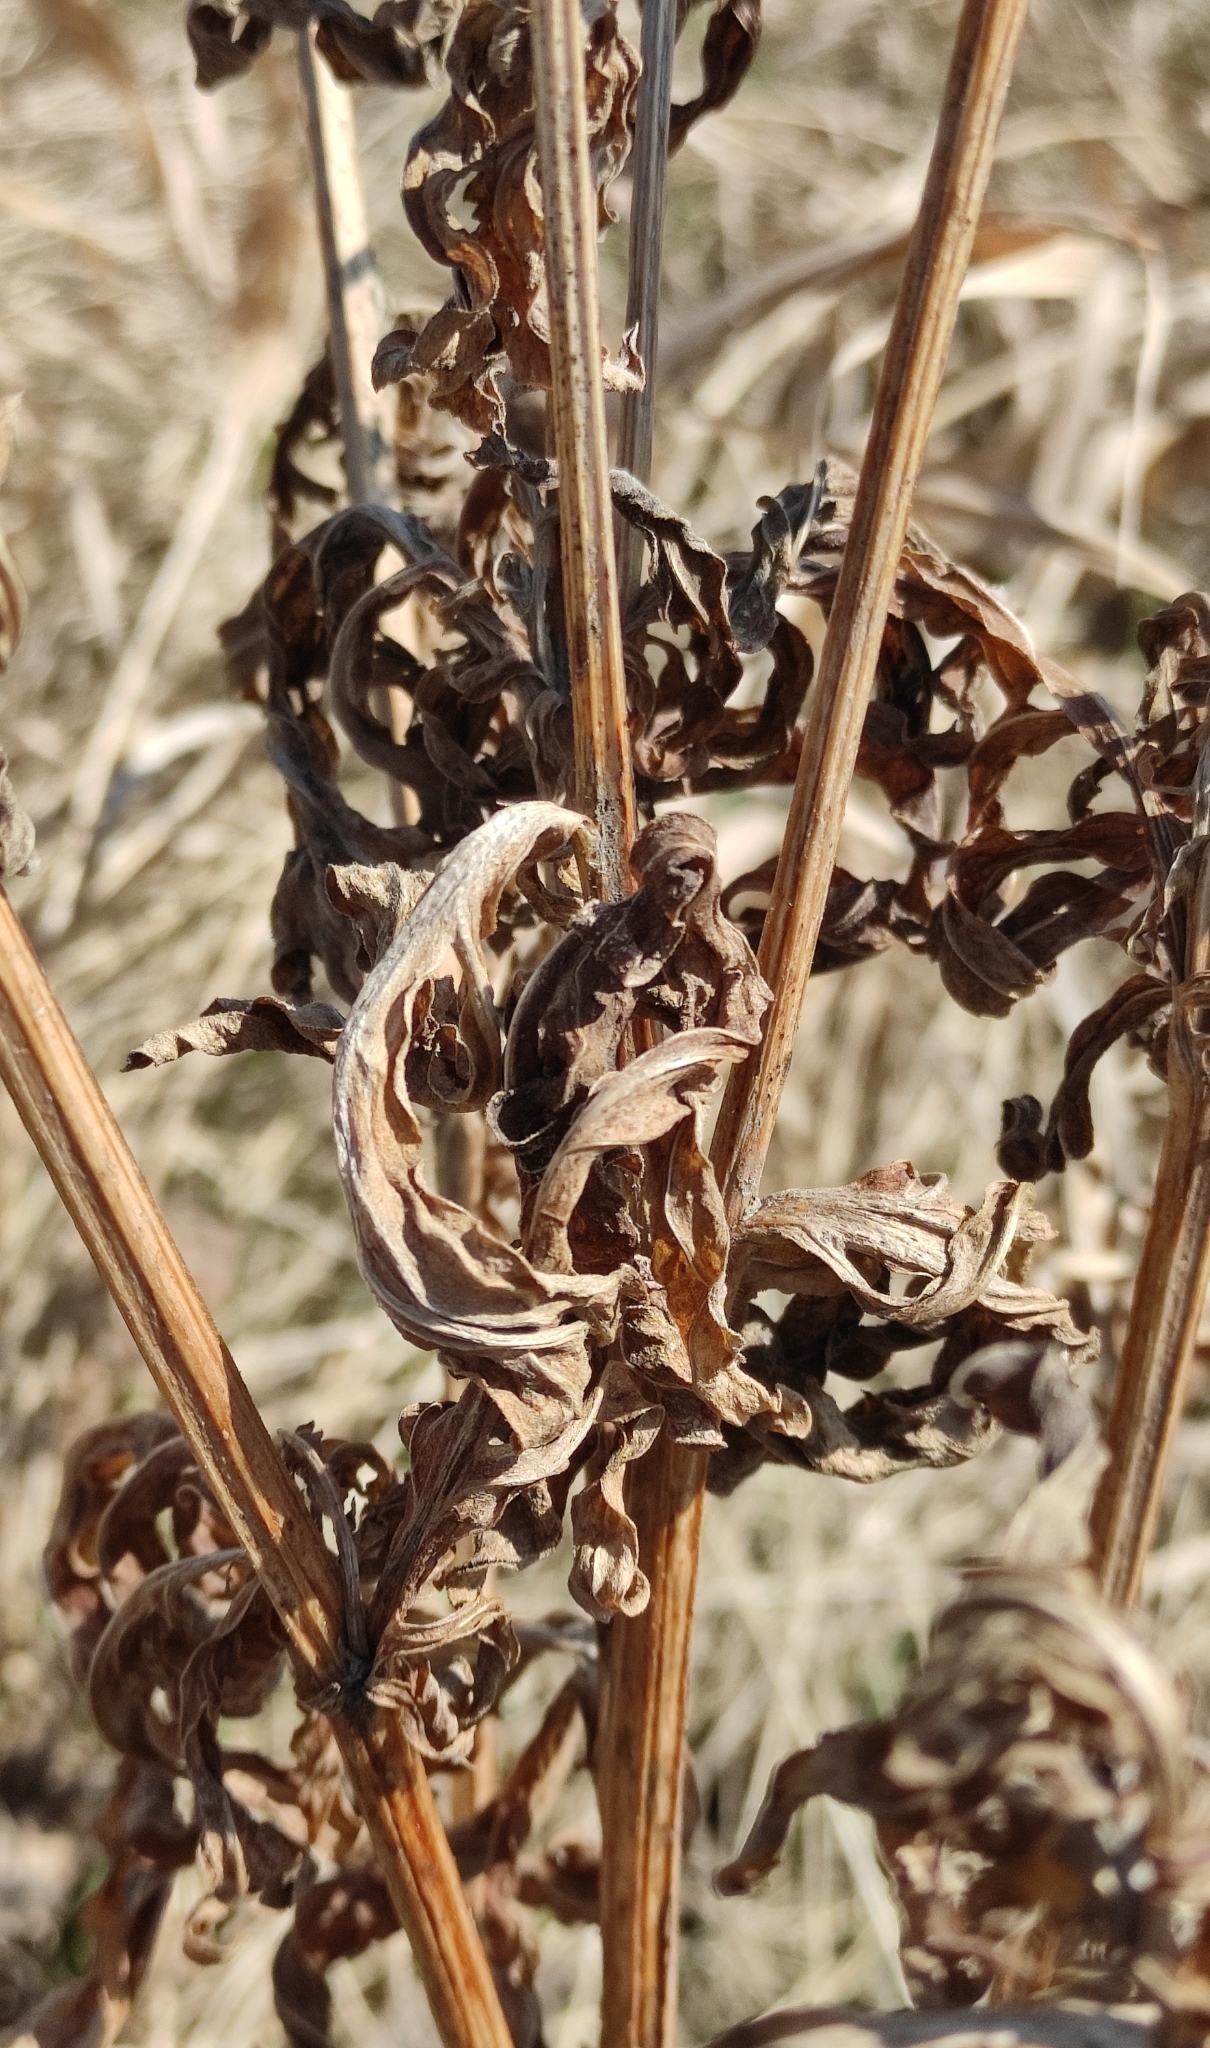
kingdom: Plantae
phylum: Tracheophyta
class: Magnoliopsida
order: Asterales
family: Asteraceae
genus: Centaurea
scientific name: Centaurea scabiosa
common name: Greater knapweed
